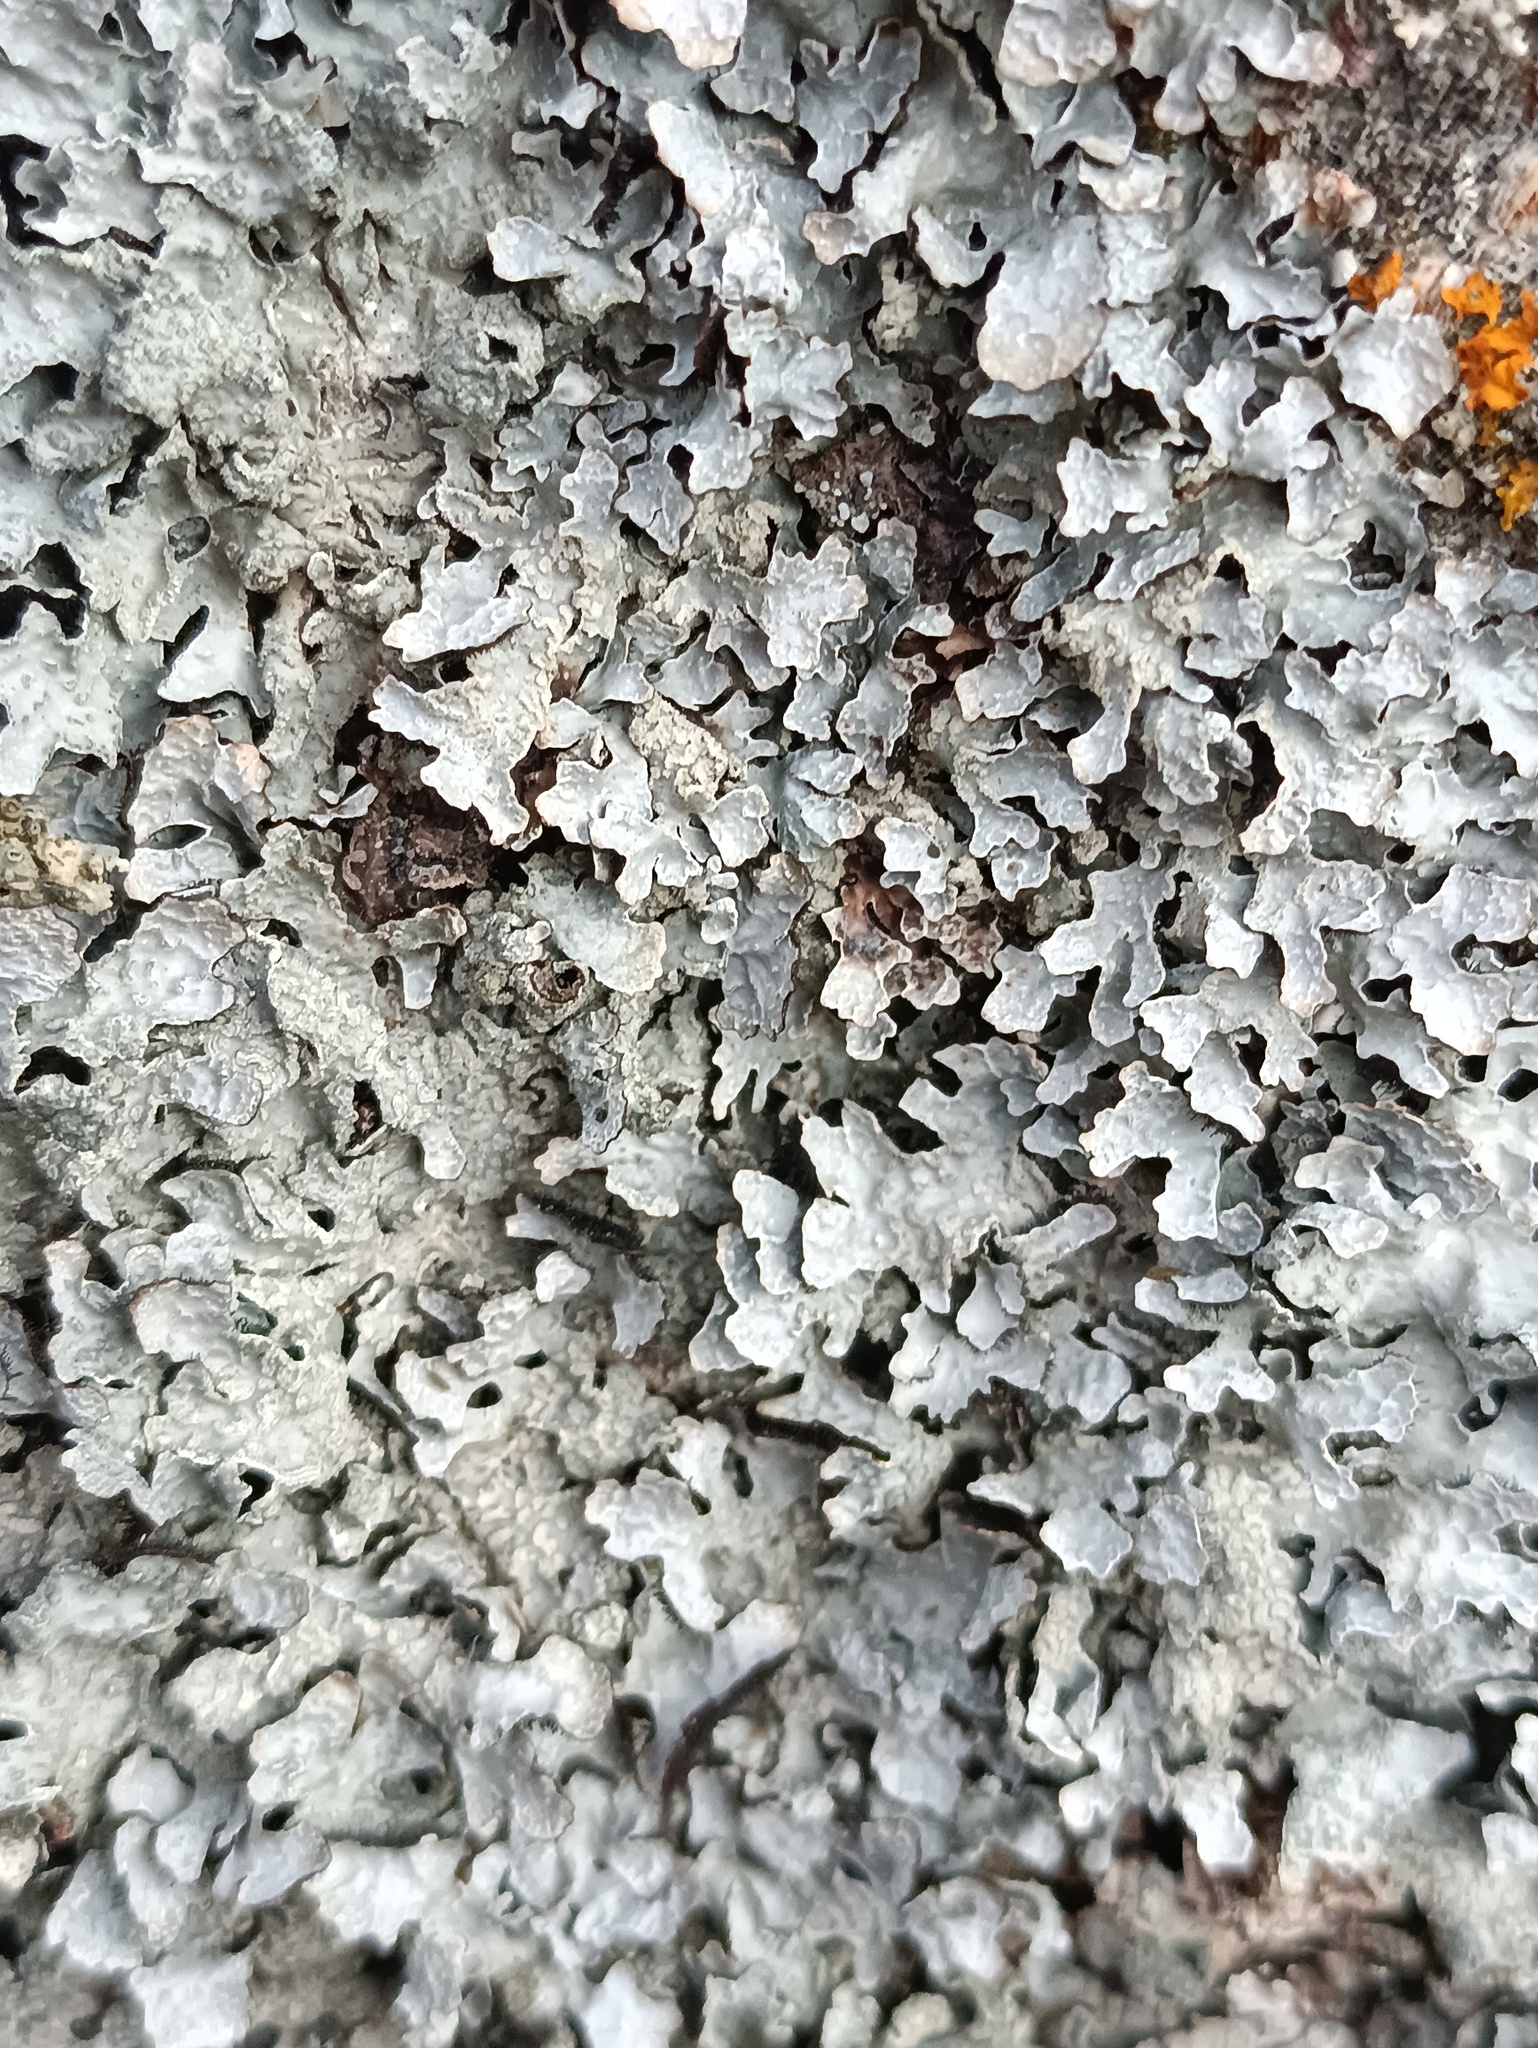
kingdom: Fungi
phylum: Ascomycota
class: Lecanoromycetes
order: Lecanorales
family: Parmeliaceae
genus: Parmelia
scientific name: Parmelia sulcata
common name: Netted shield lichen
